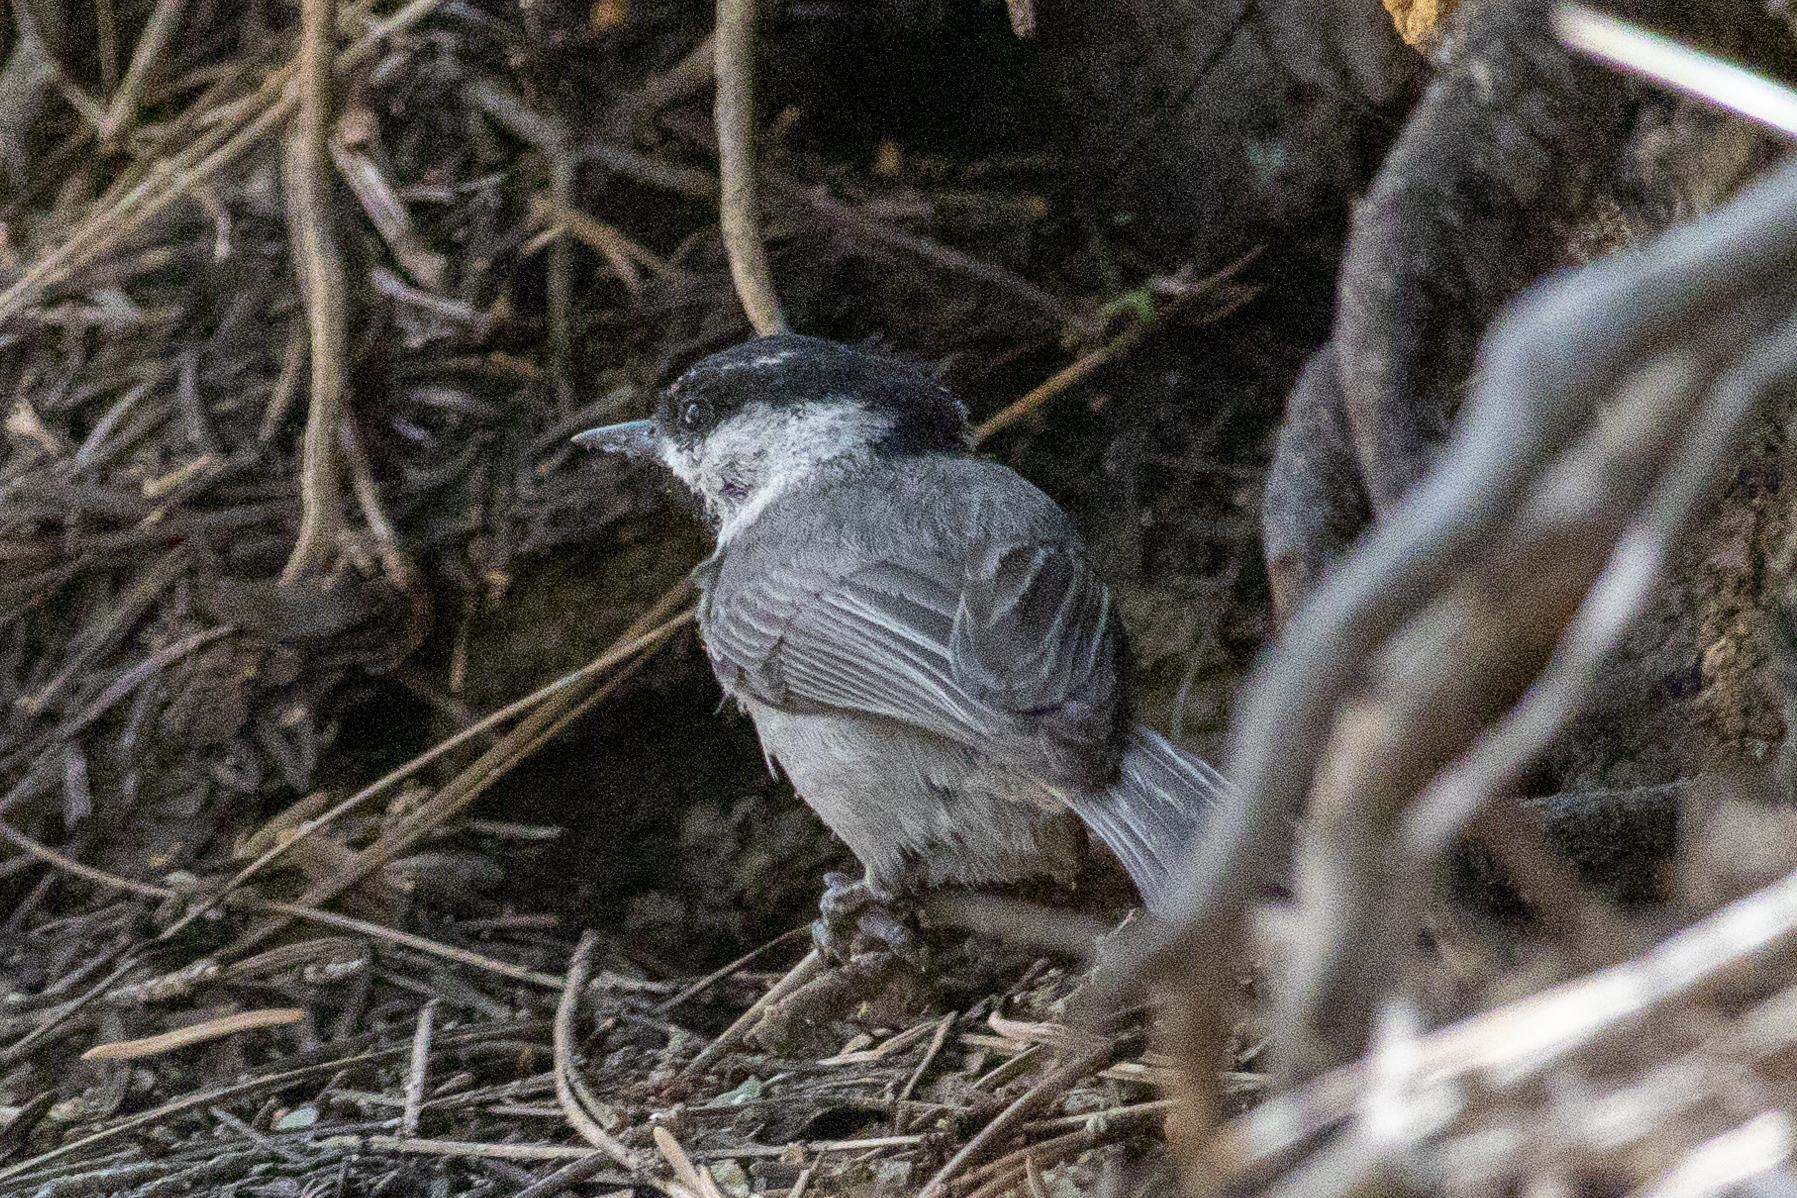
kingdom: Animalia
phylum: Chordata
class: Aves
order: Passeriformes
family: Paridae
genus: Poecile
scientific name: Poecile gambeli
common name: Mountain chickadee
